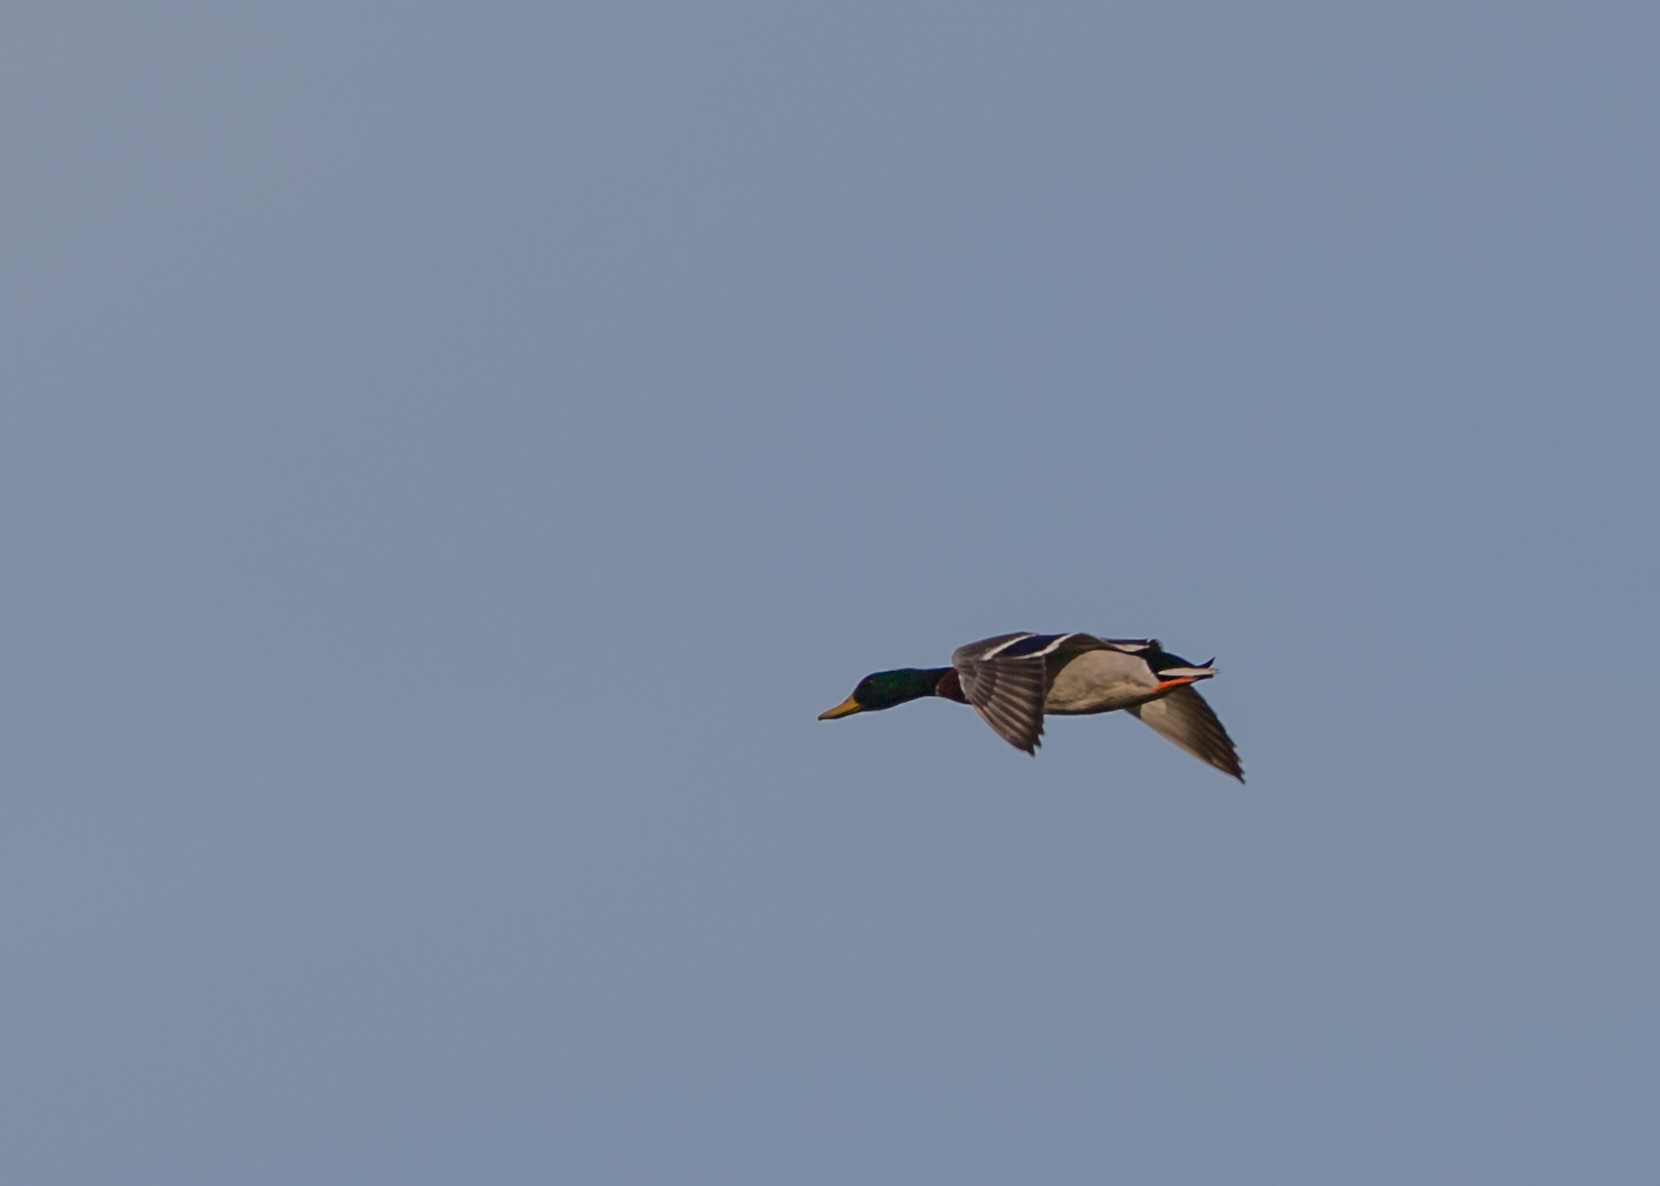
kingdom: Animalia
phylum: Chordata
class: Aves
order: Anseriformes
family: Anatidae
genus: Anas
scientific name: Anas platyrhynchos
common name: Mallard
